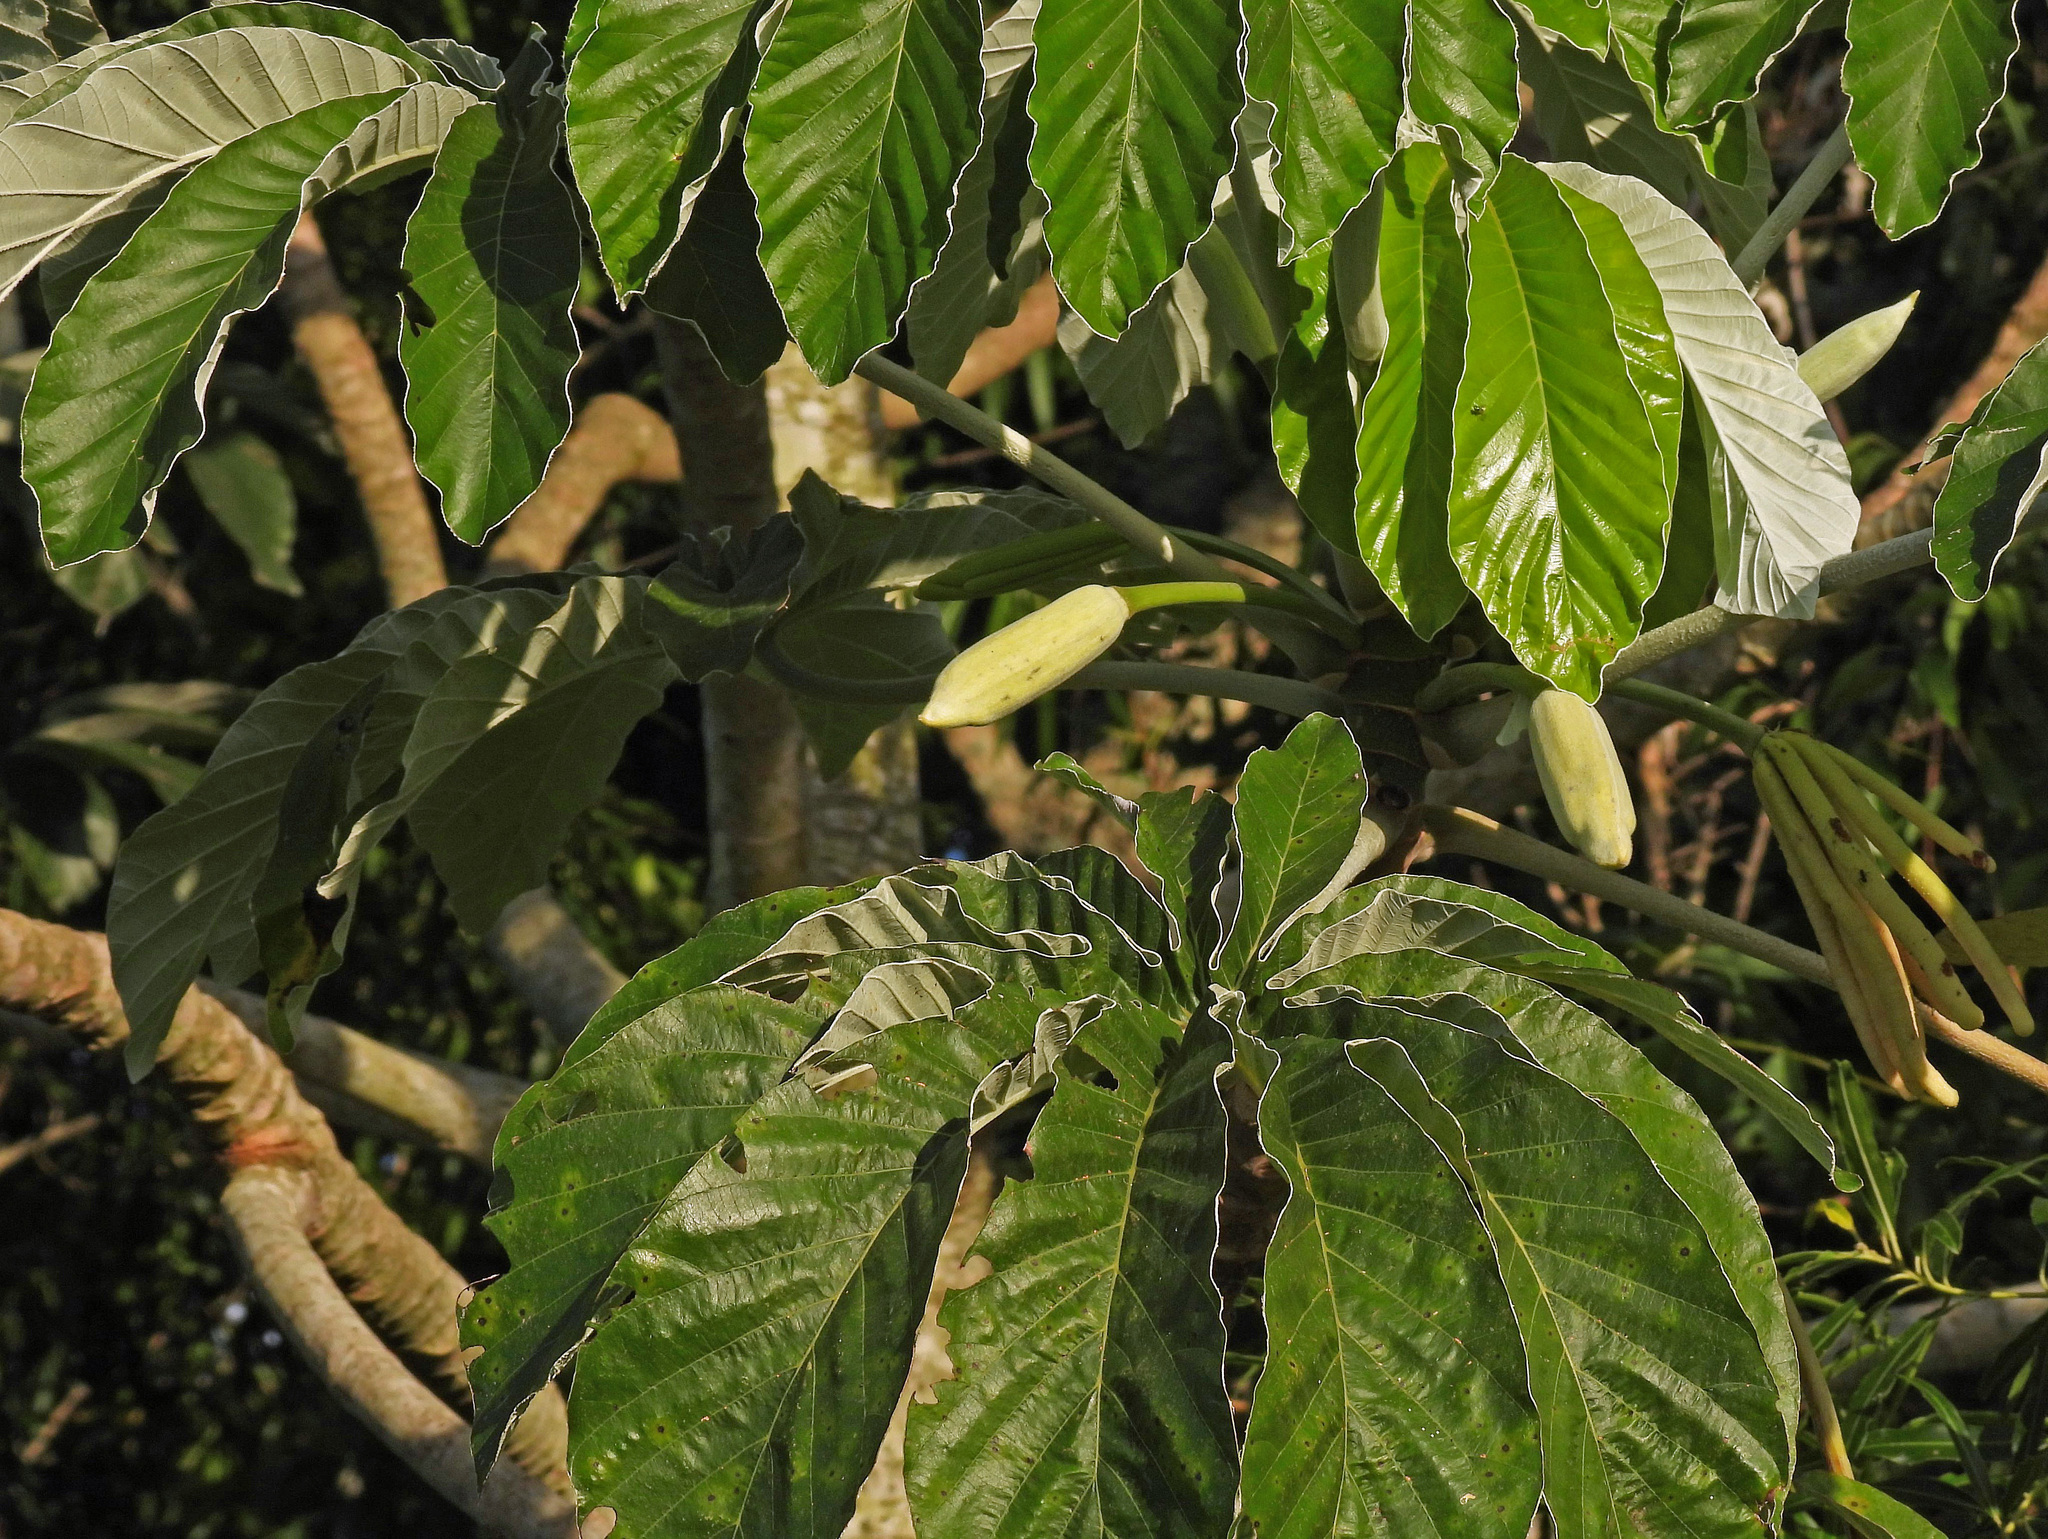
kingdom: Plantae
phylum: Tracheophyta
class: Magnoliopsida
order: Rosales
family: Urticaceae
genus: Cecropia
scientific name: Cecropia pachystachya
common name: Ambay pumpwood
